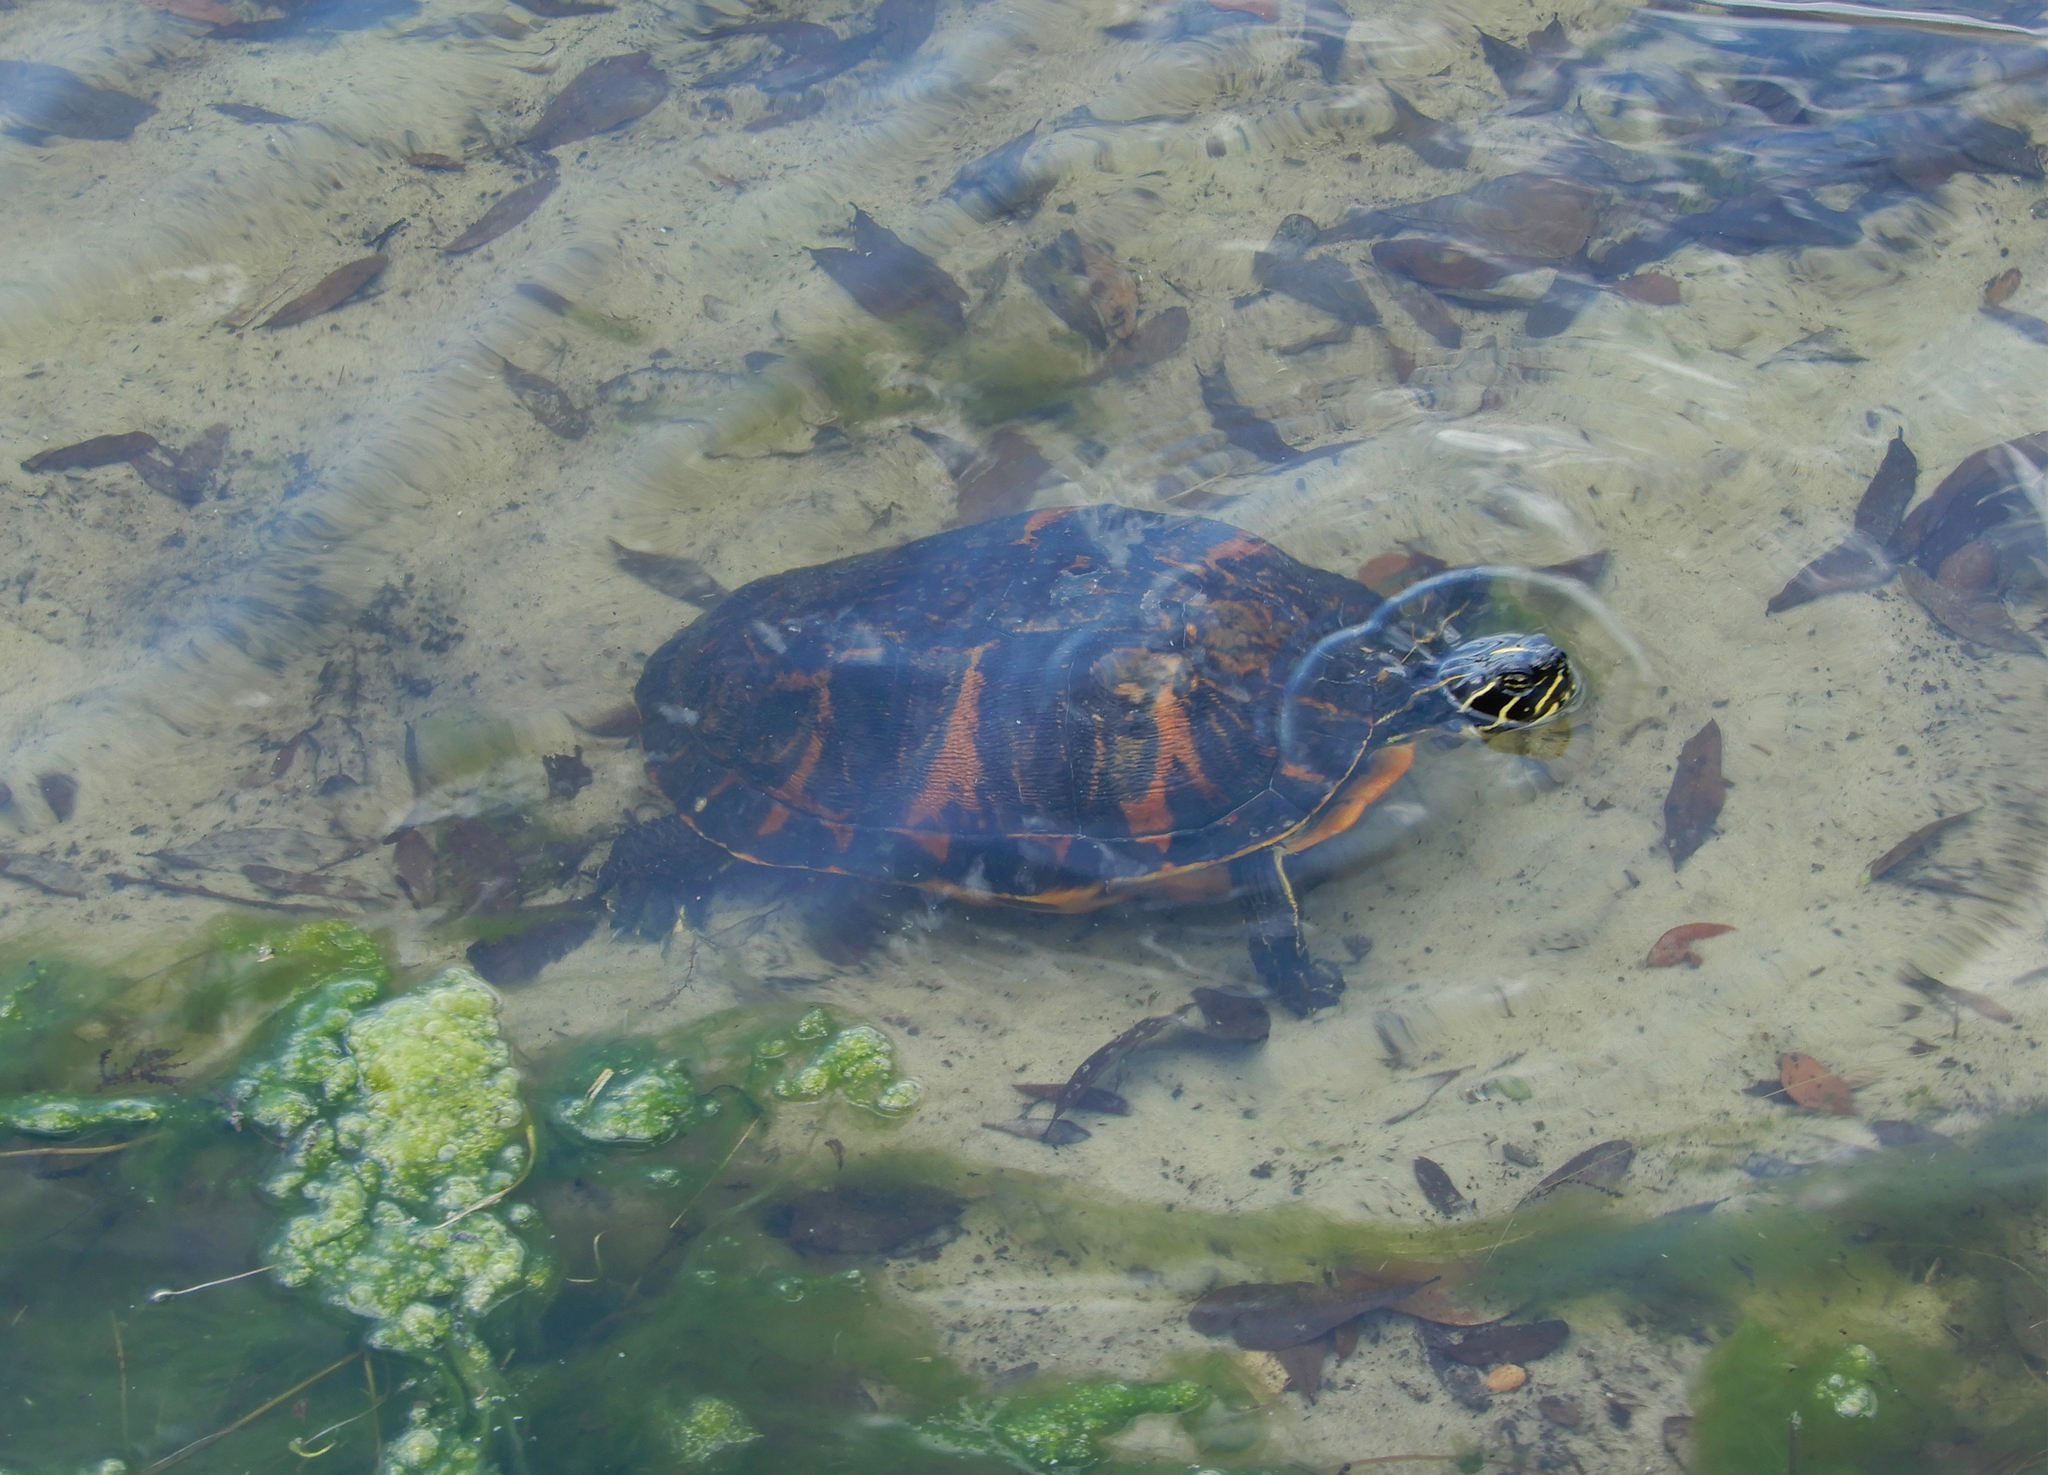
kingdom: Animalia
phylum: Chordata
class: Testudines
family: Emydidae
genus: Pseudemys
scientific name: Pseudemys nelsoni
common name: Florida red-bellied turtle
